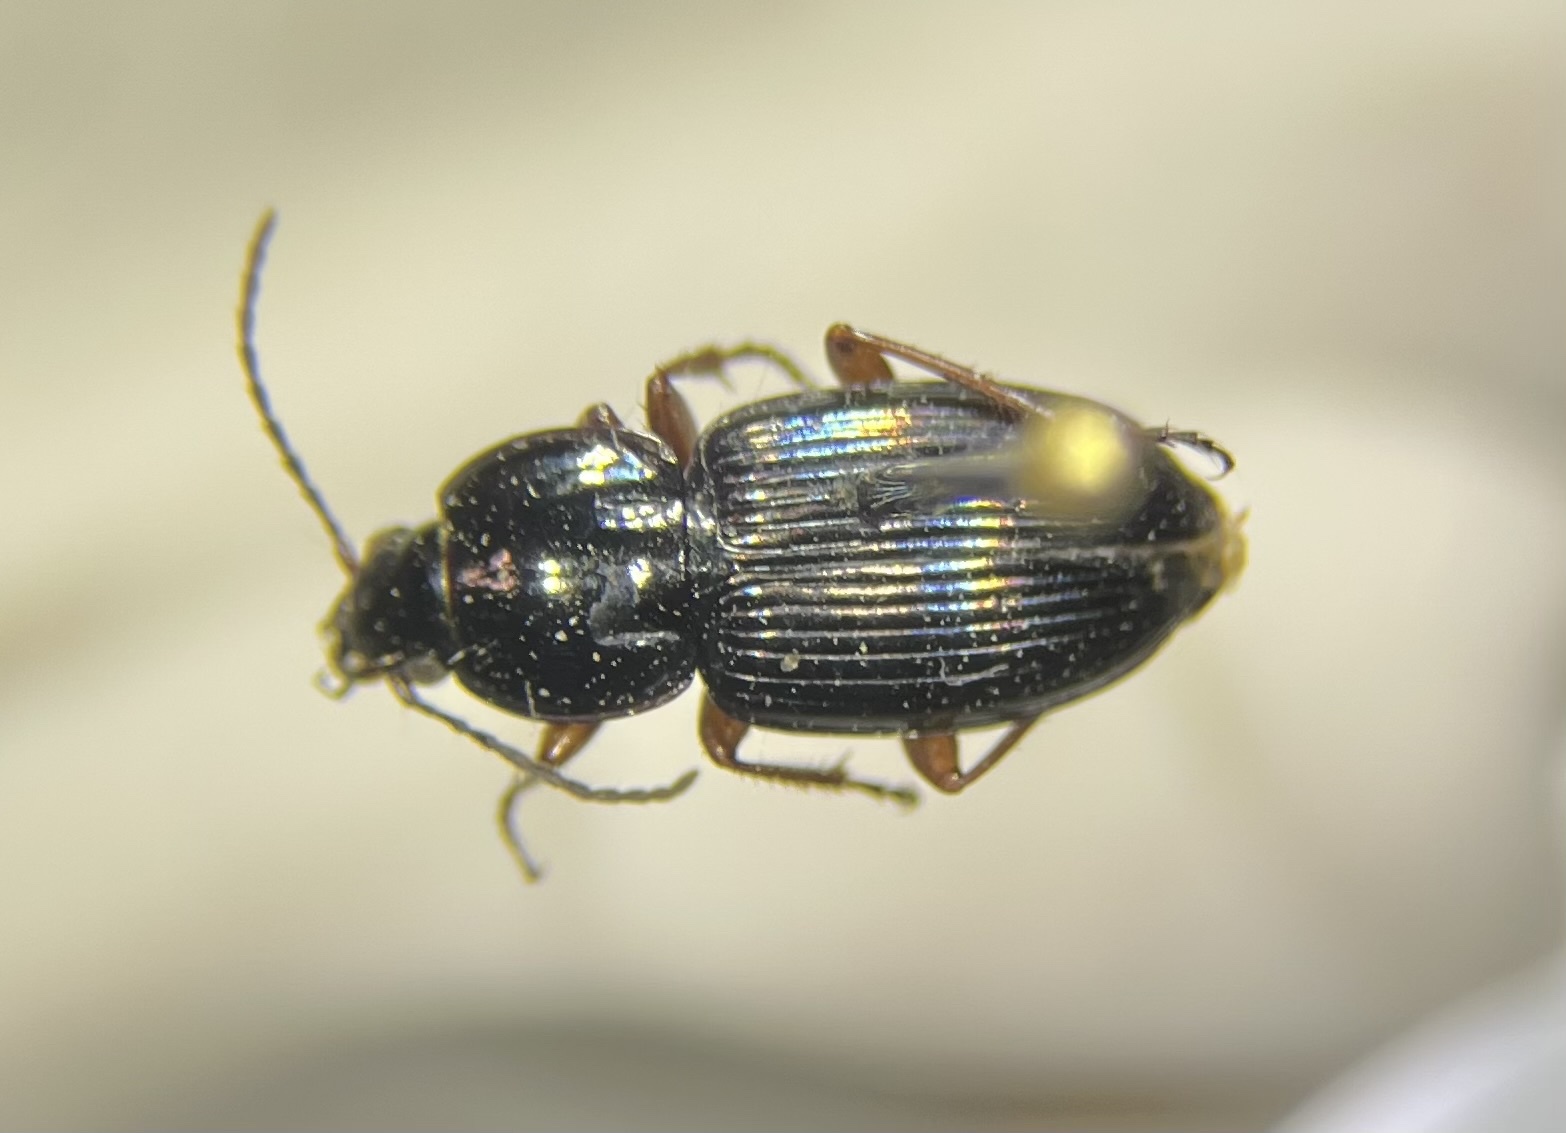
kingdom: Animalia
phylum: Arthropoda
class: Insecta
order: Coleoptera
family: Carabidae
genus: Pterostichus
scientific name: Pterostichus commutabilis
